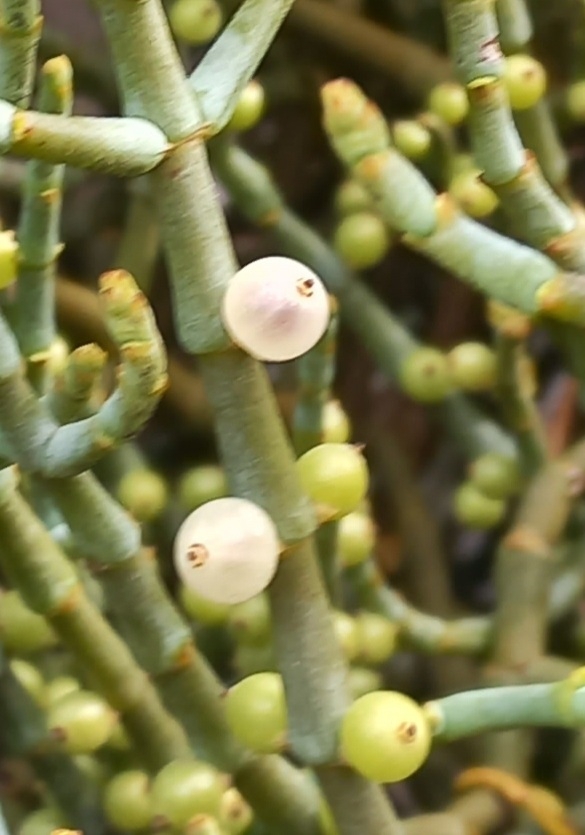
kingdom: Plantae
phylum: Tracheophyta
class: Magnoliopsida
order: Santalales
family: Viscaceae
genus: Viscum
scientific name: Viscum capense
